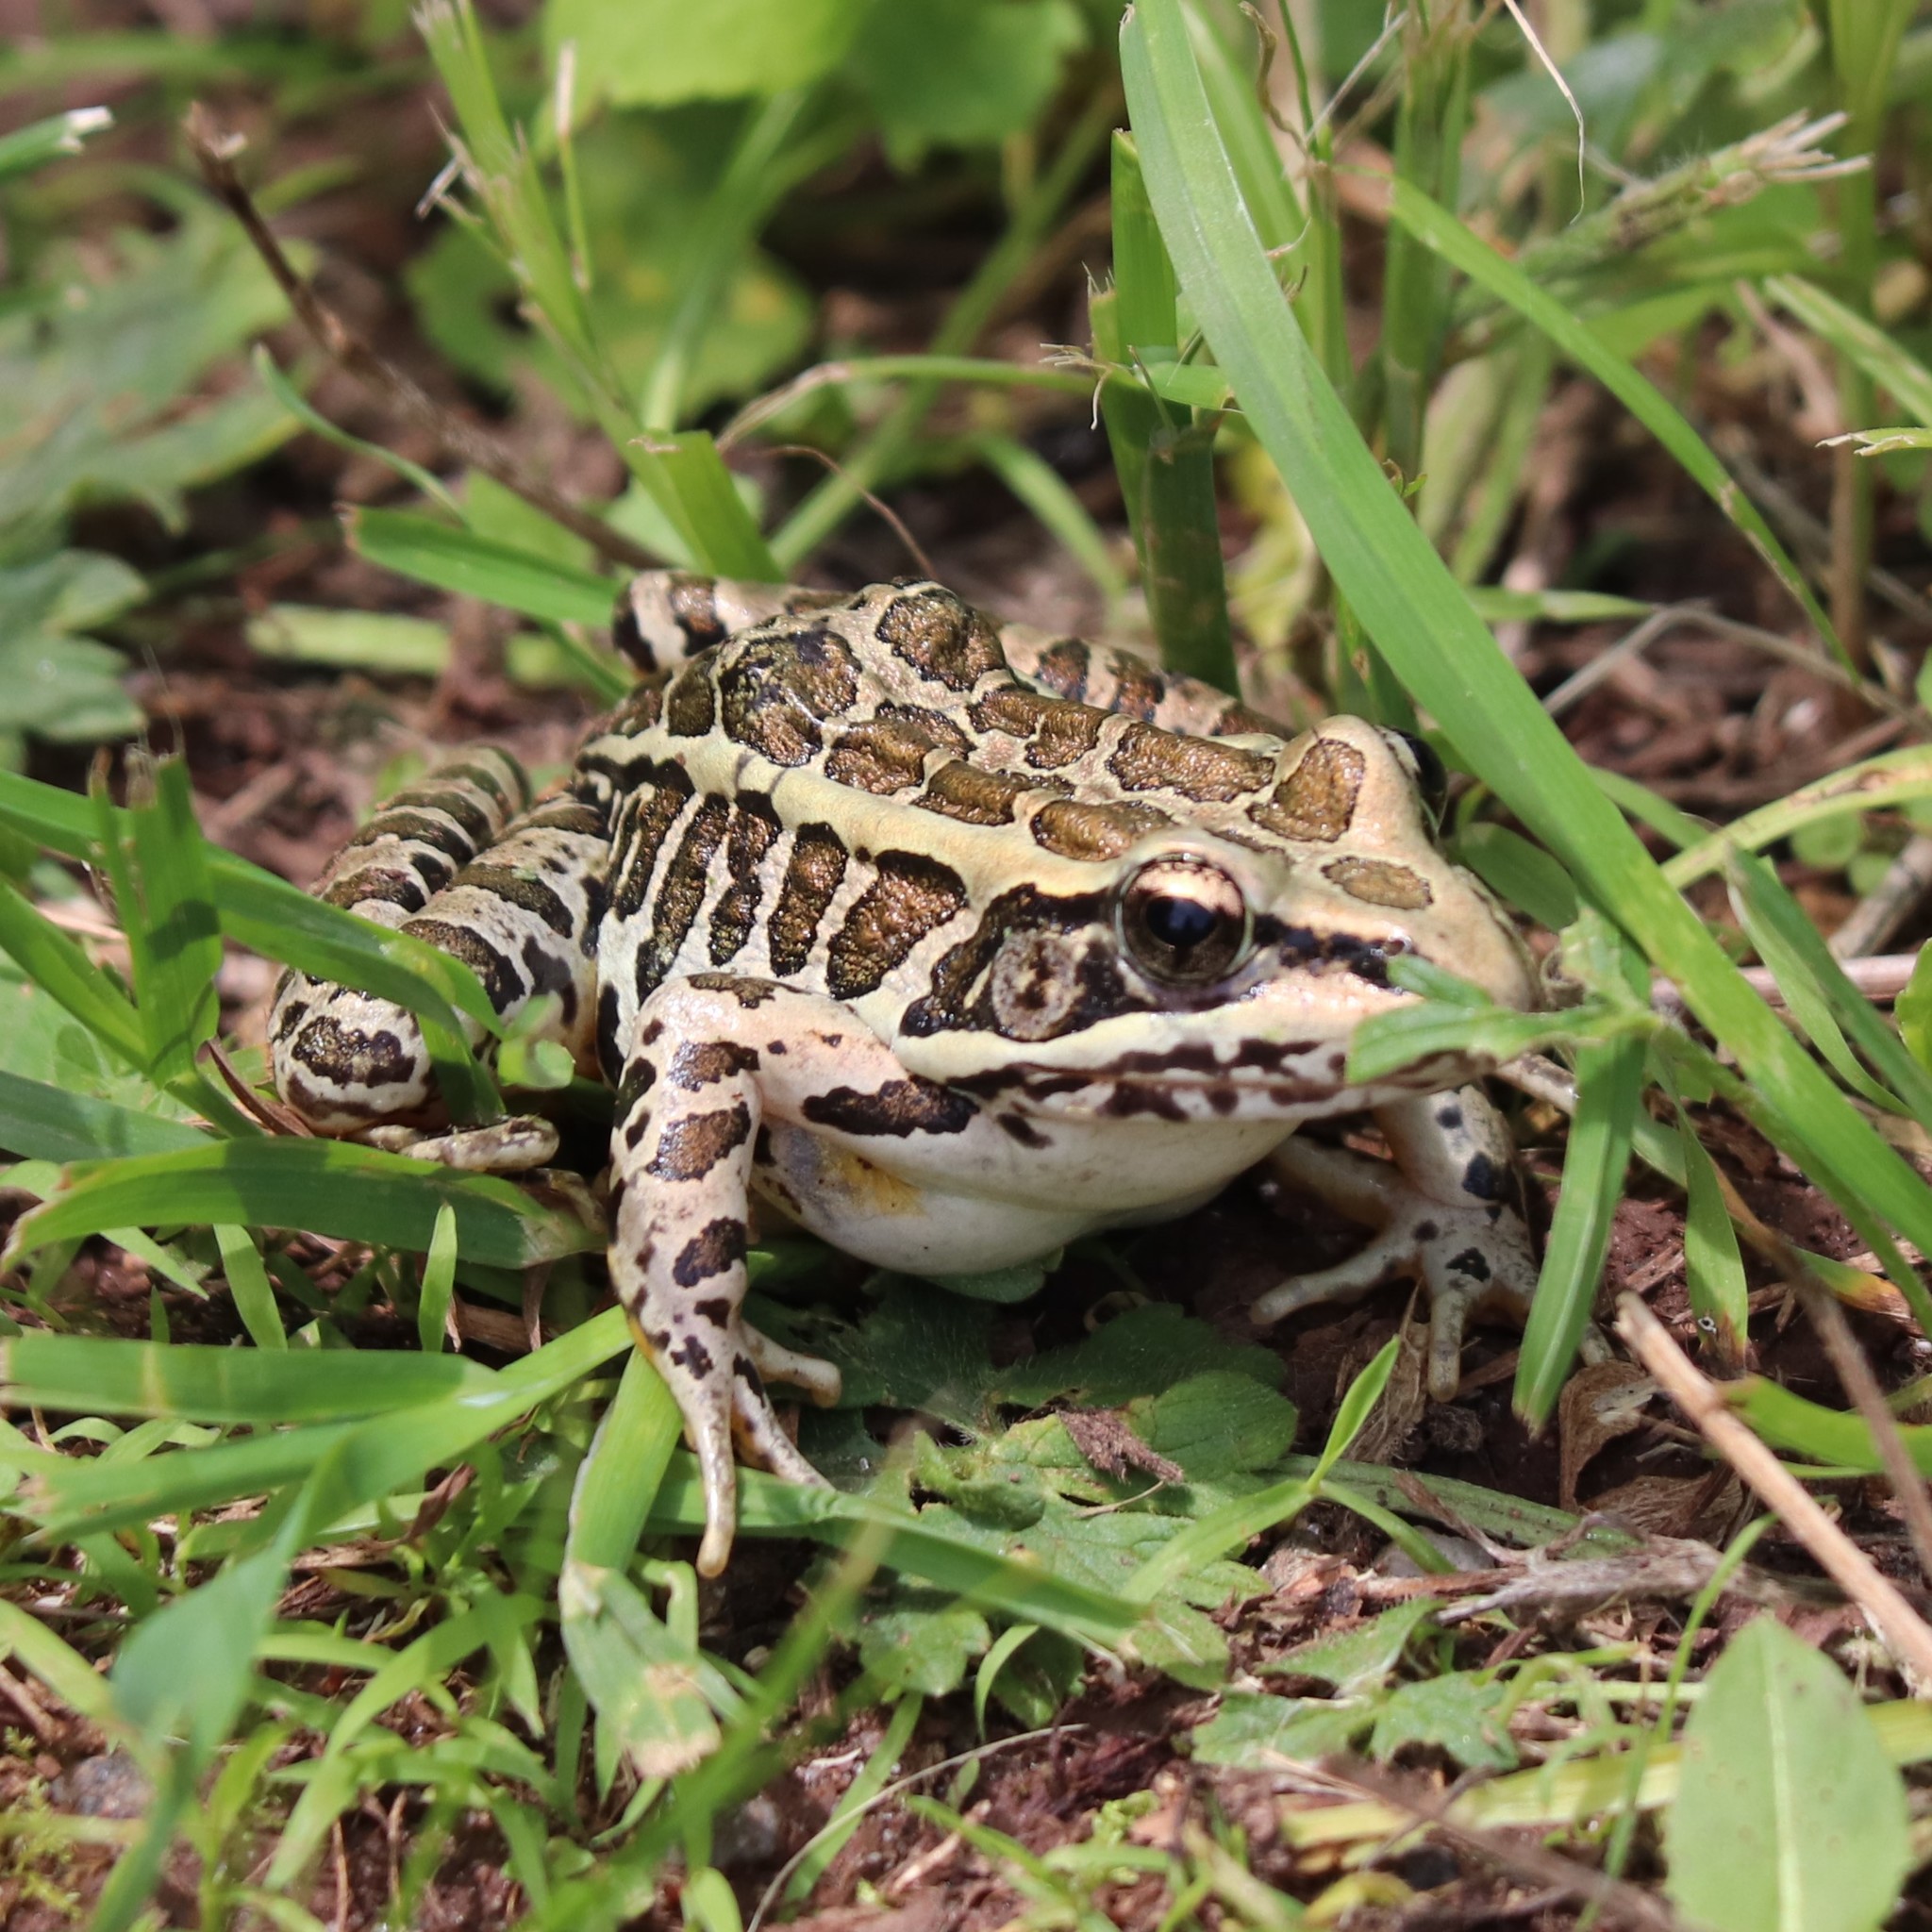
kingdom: Animalia
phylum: Chordata
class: Amphibia
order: Anura
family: Ranidae
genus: Lithobates
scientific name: Lithobates palustris
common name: Pickerel frog
